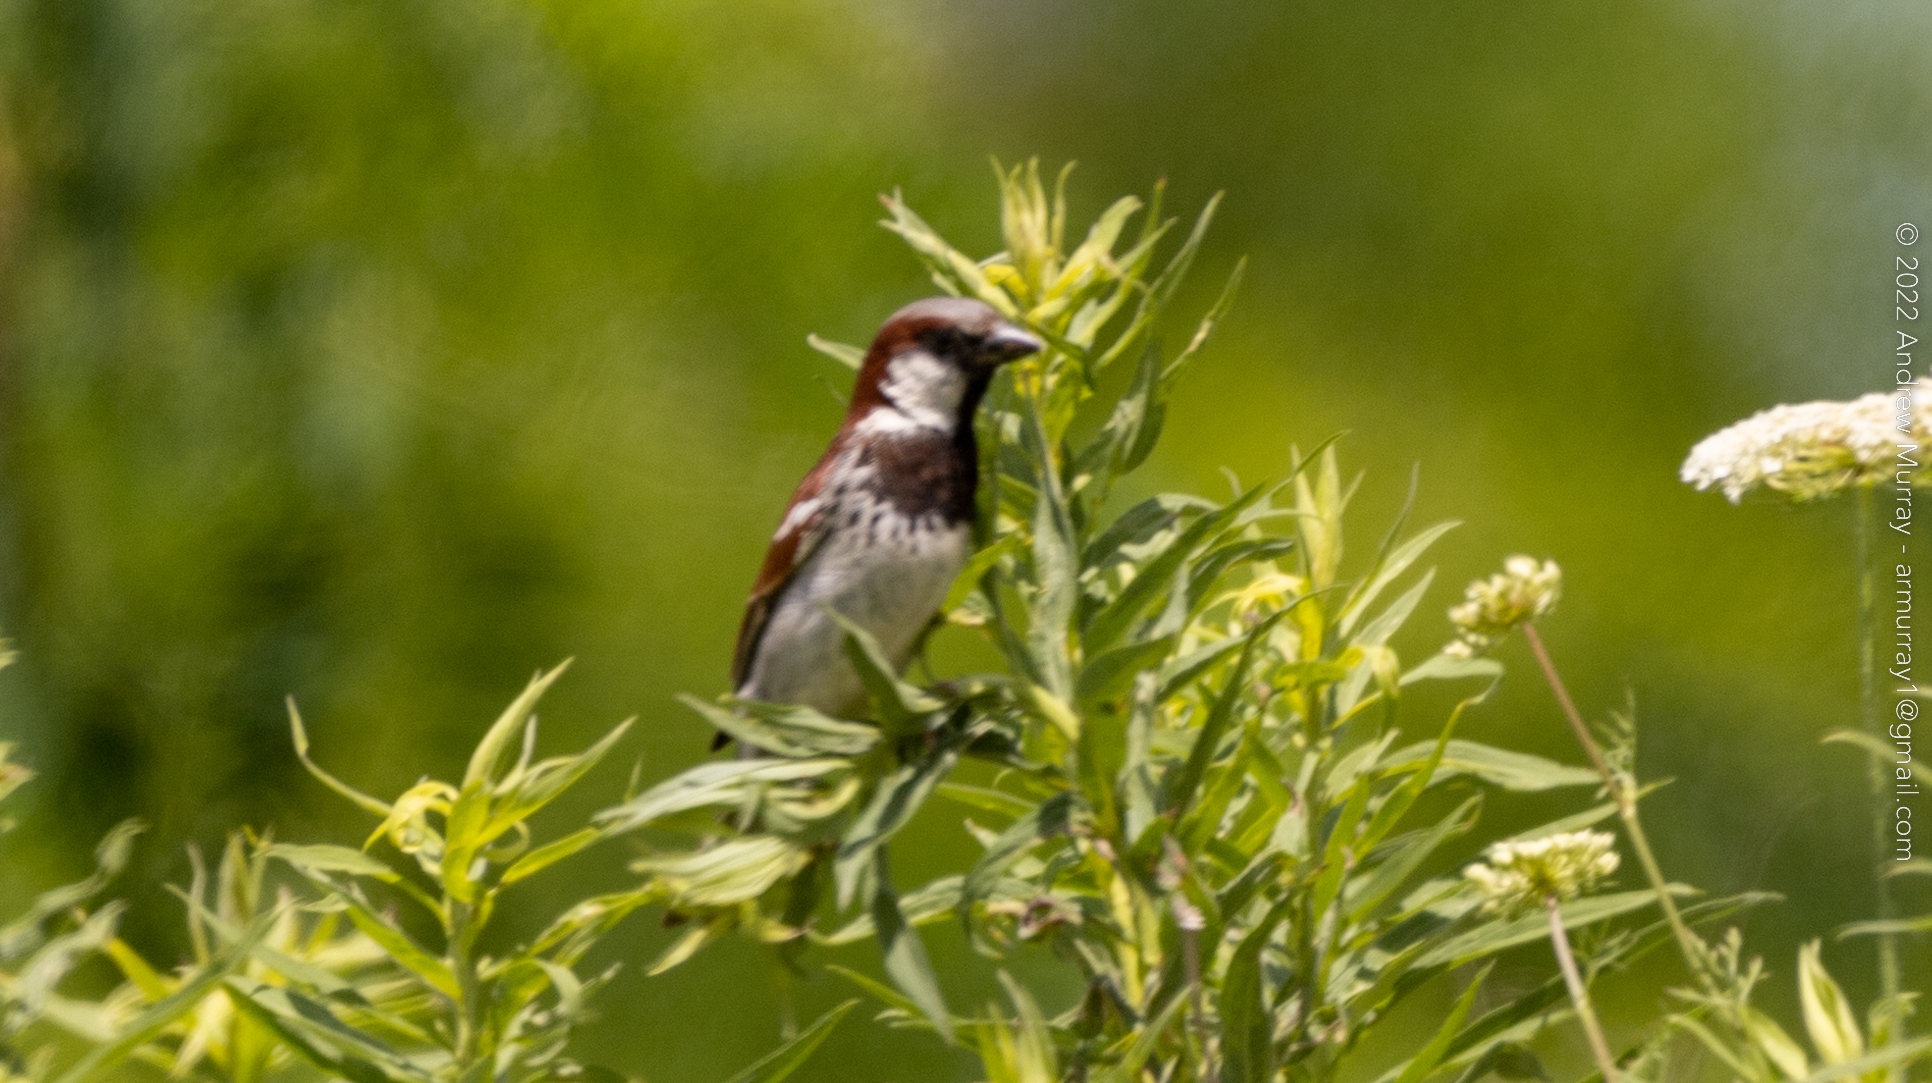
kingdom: Animalia
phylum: Chordata
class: Aves
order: Passeriformes
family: Passeridae
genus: Passer
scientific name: Passer domesticus
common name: House sparrow
